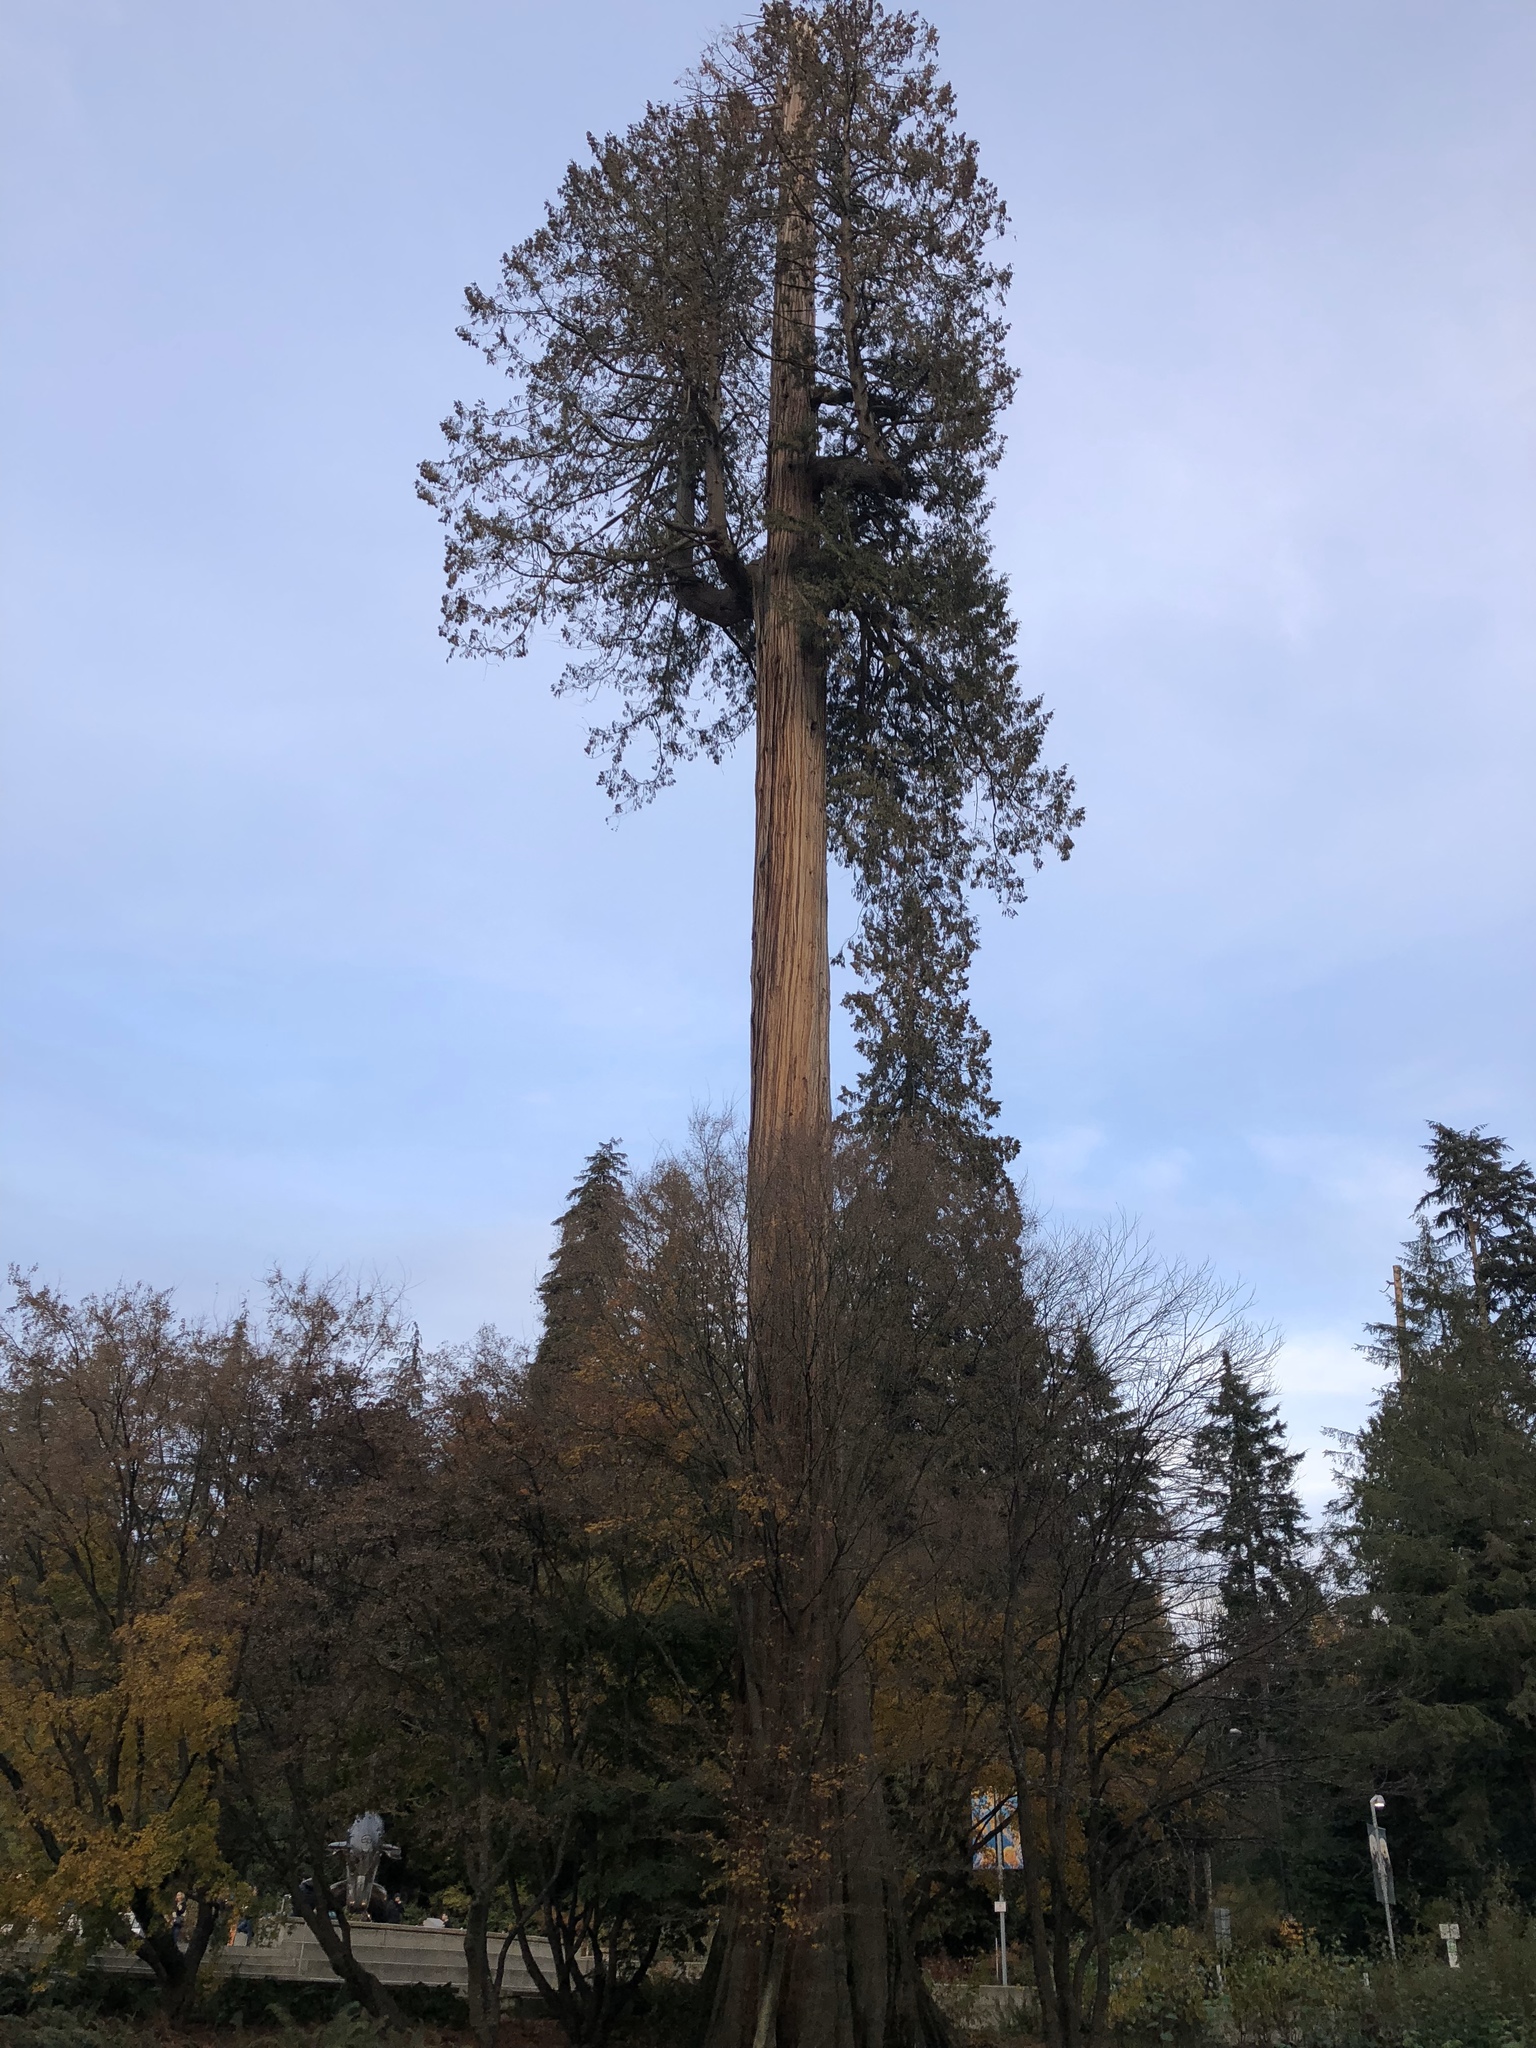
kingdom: Plantae
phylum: Tracheophyta
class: Pinopsida
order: Pinales
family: Cupressaceae
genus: Thuja
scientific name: Thuja plicata
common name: Western red-cedar
